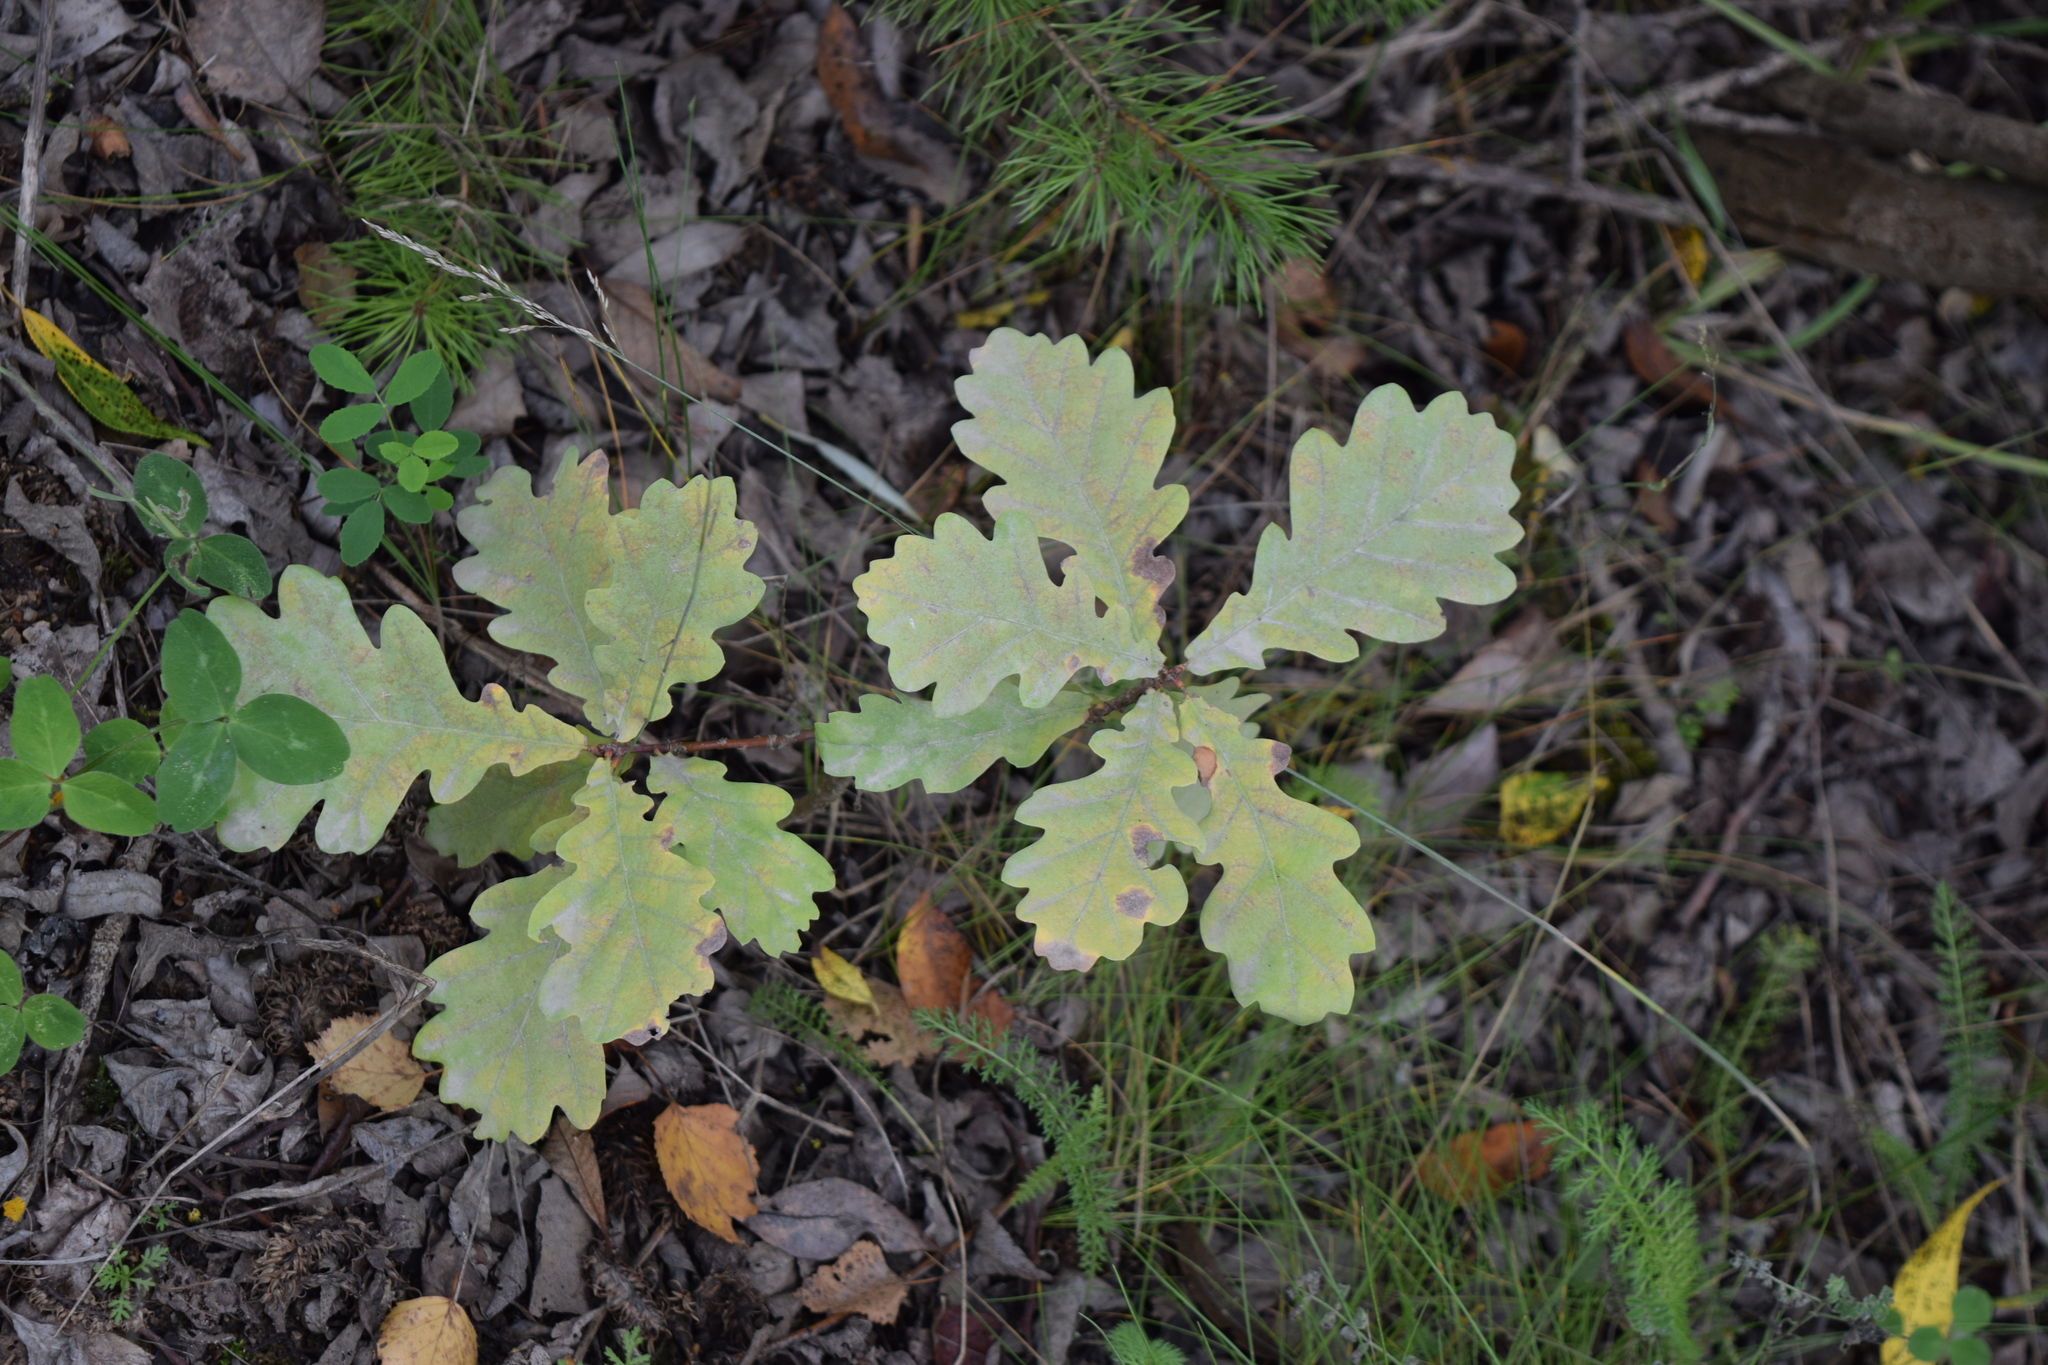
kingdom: Plantae
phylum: Tracheophyta
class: Magnoliopsida
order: Fagales
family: Fagaceae
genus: Quercus
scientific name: Quercus robur
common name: Pedunculate oak
